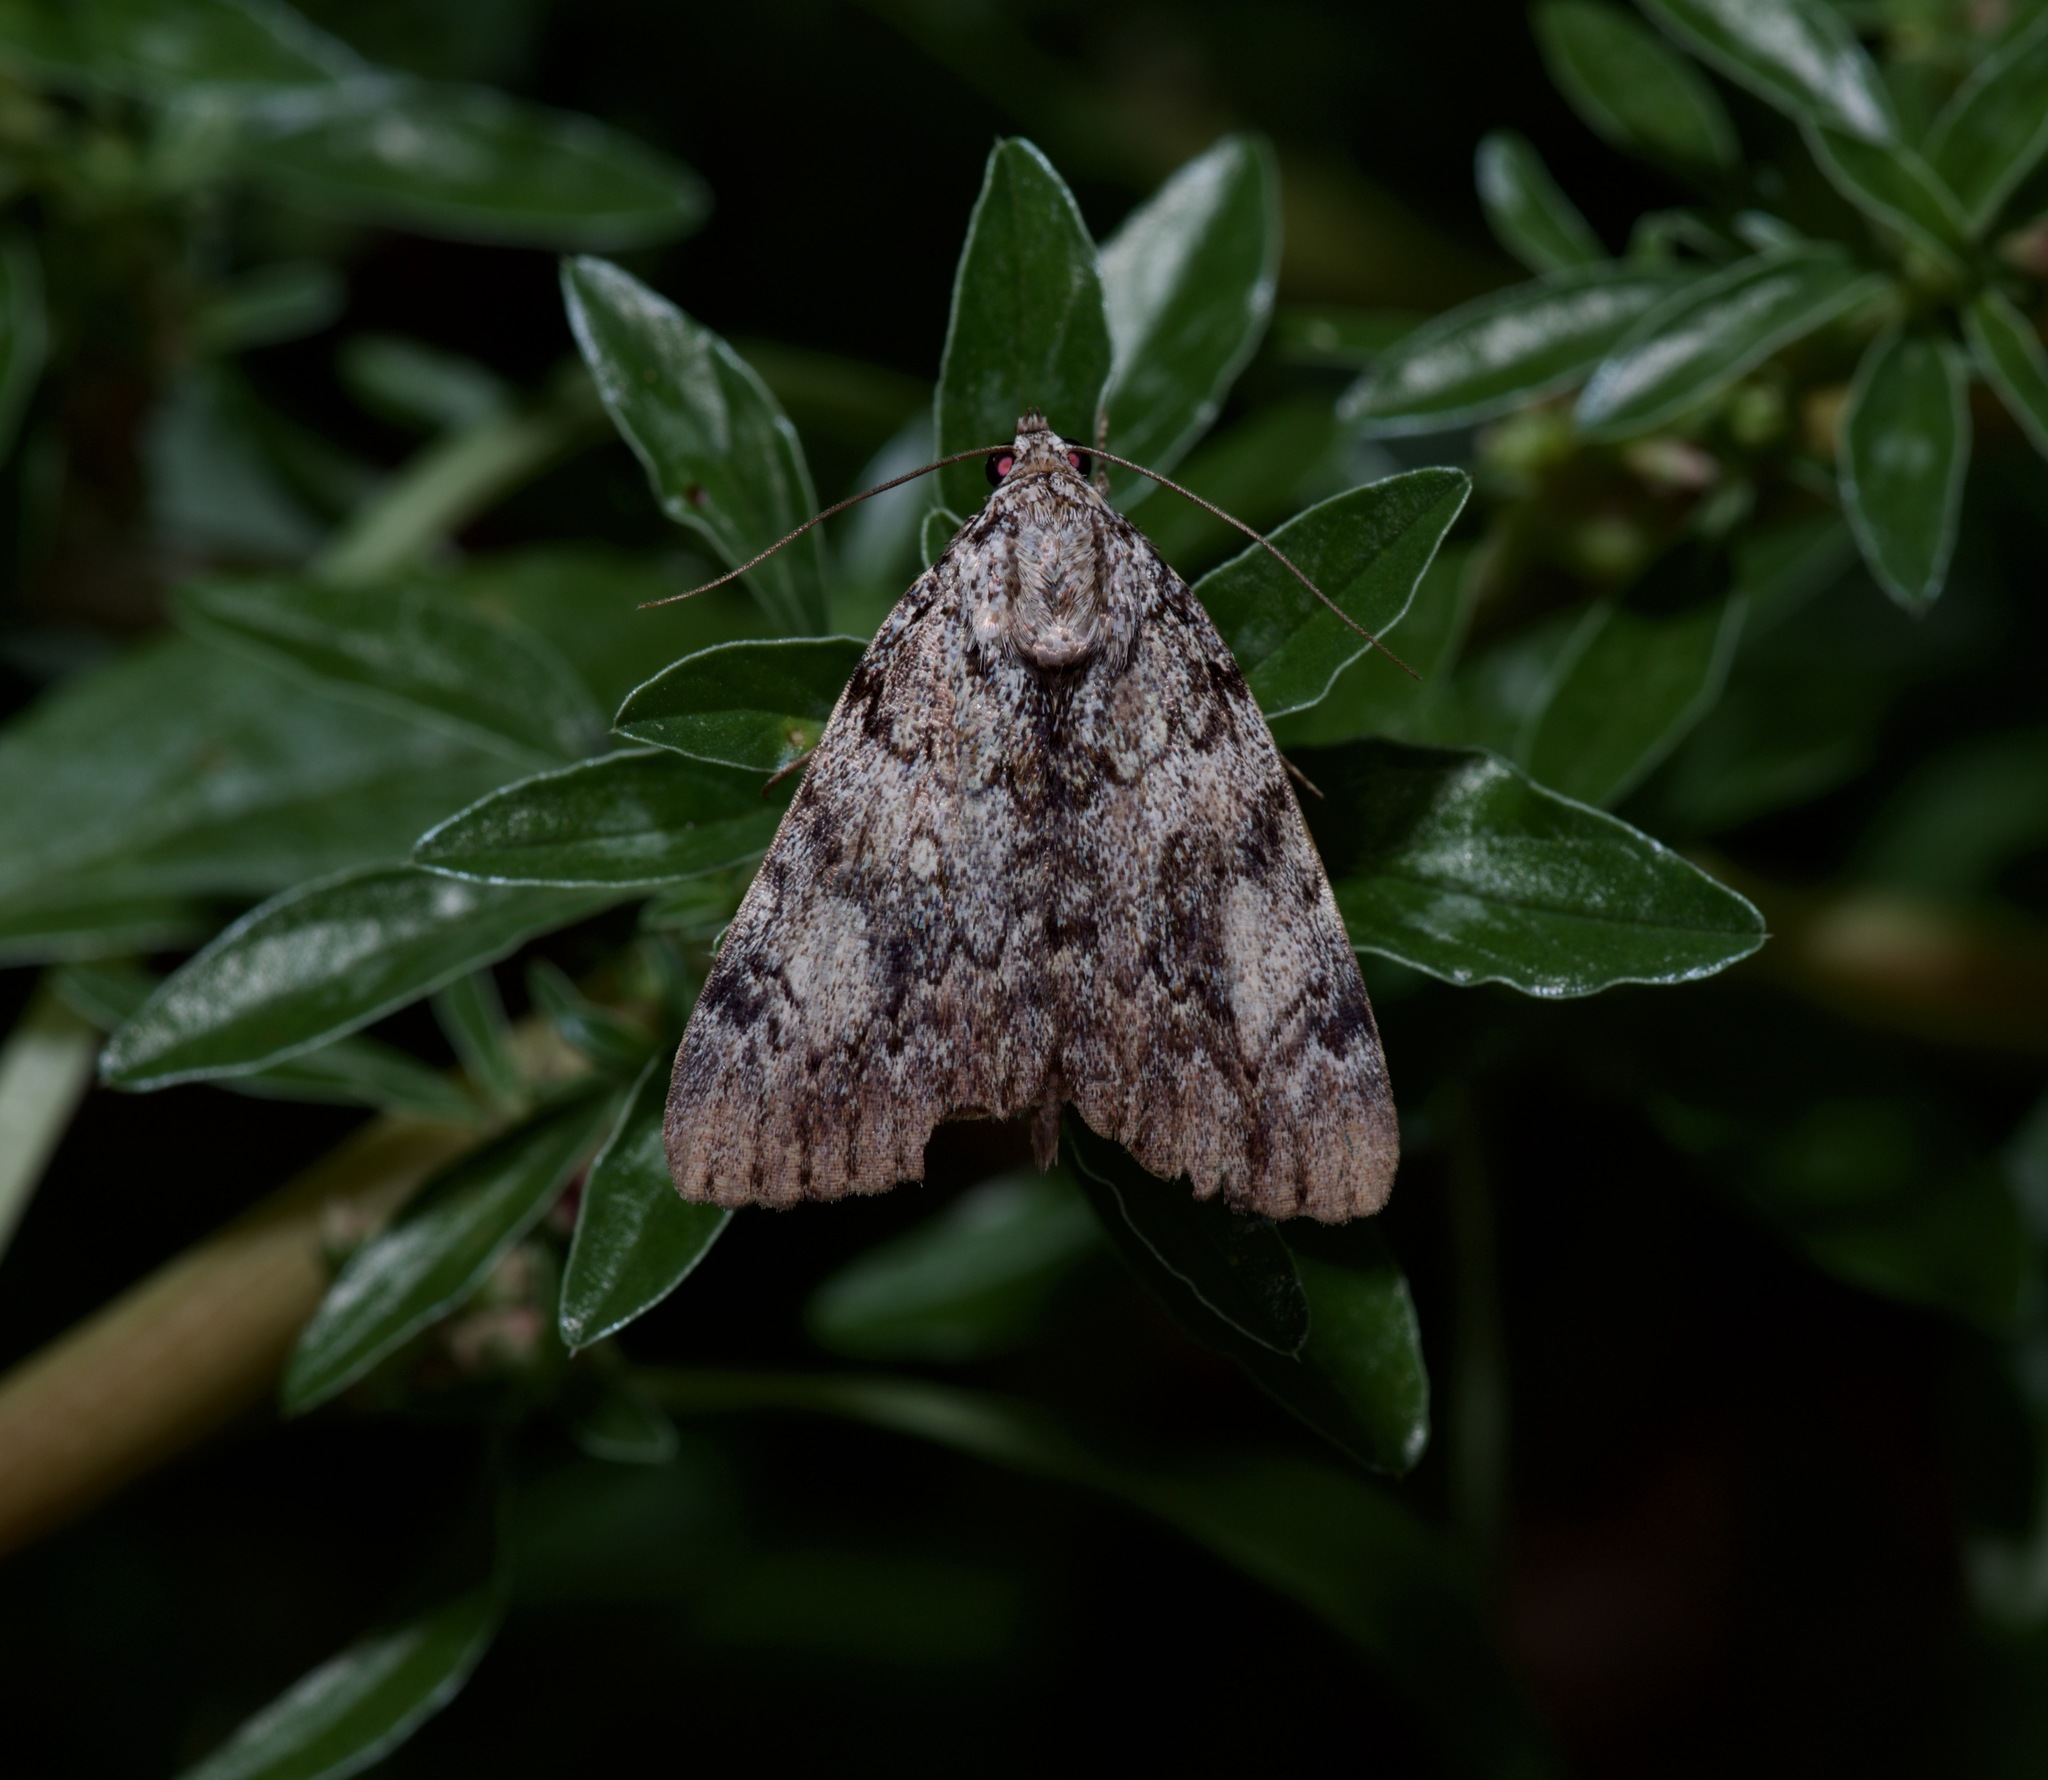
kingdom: Animalia
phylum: Arthropoda
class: Insecta
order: Lepidoptera
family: Erebidae
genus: Catocala
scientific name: Catocala lineella
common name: Little lined underwing
